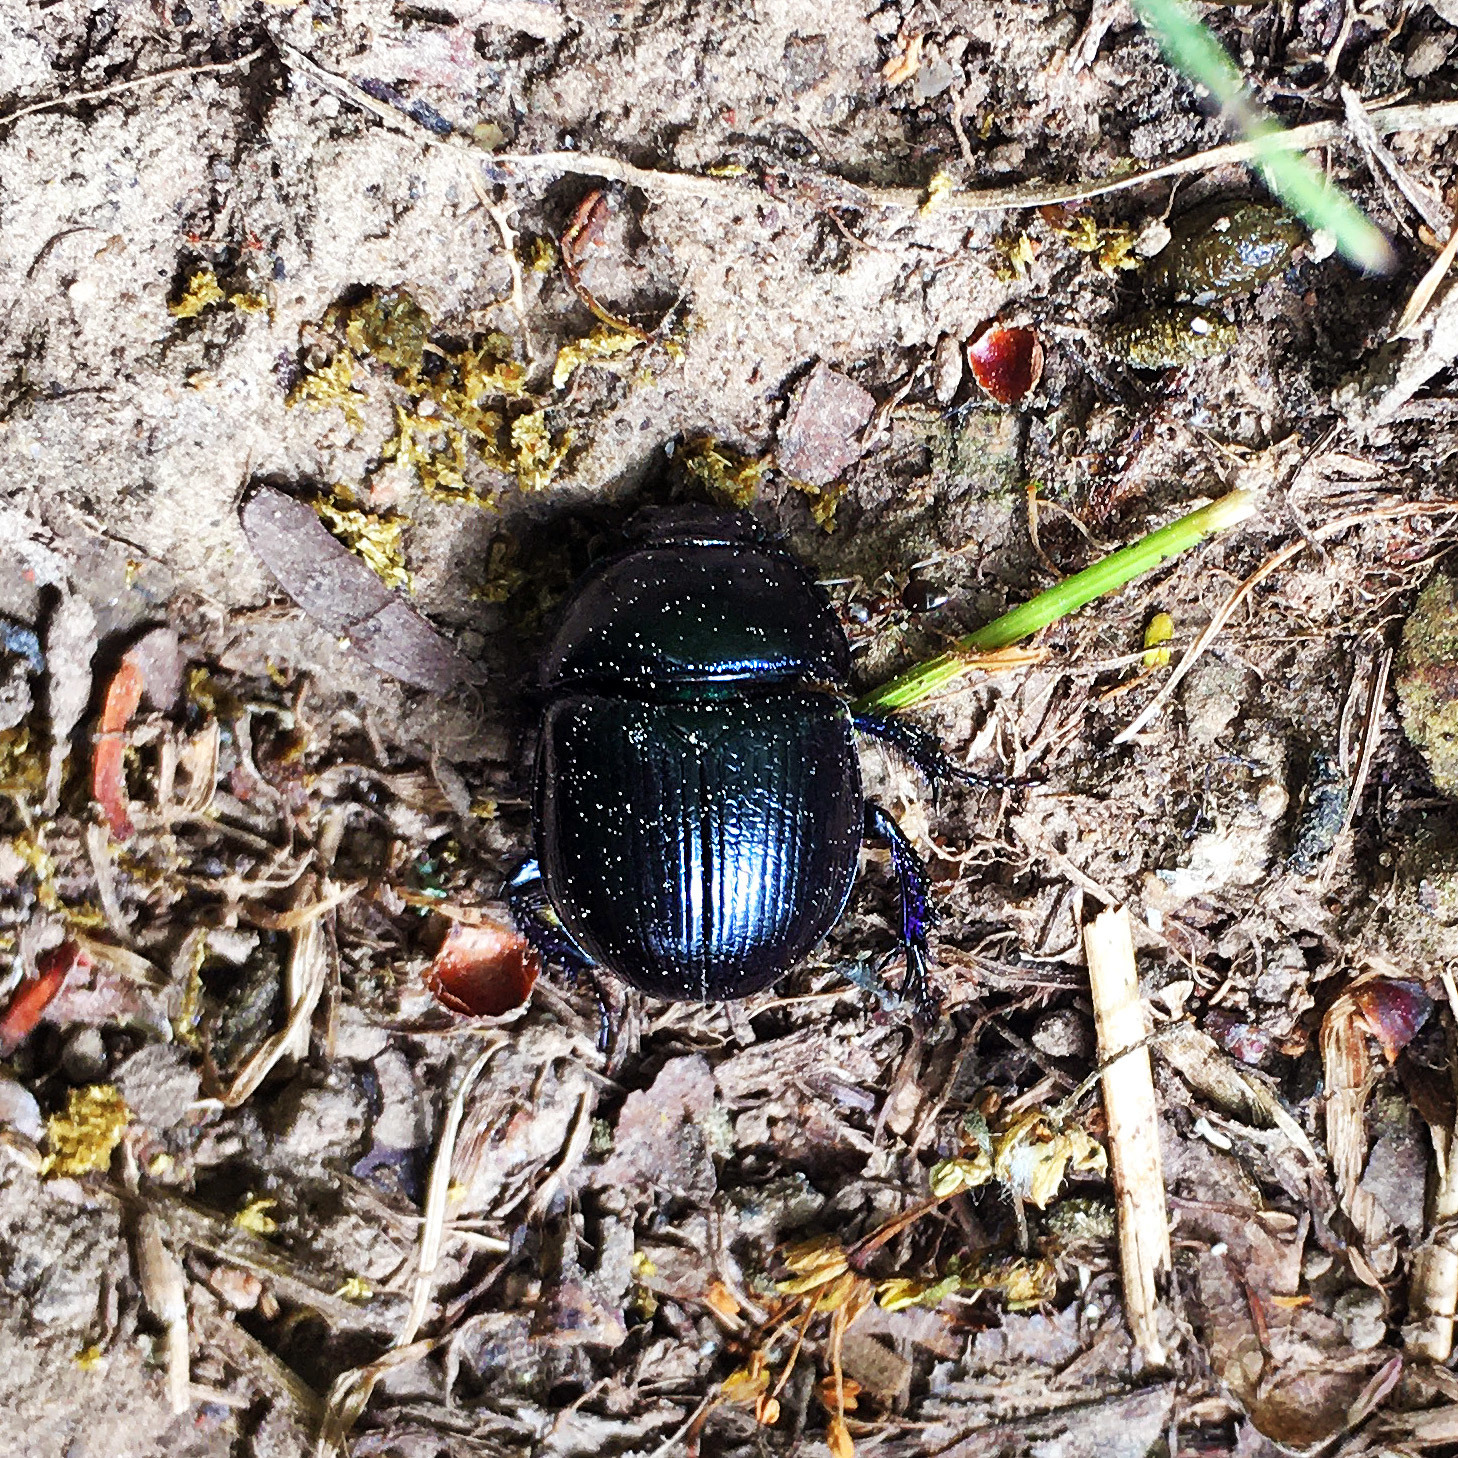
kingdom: Animalia
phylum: Arthropoda
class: Insecta
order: Coleoptera
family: Geotrupidae
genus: Anoplotrupes
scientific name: Anoplotrupes stercorosus
